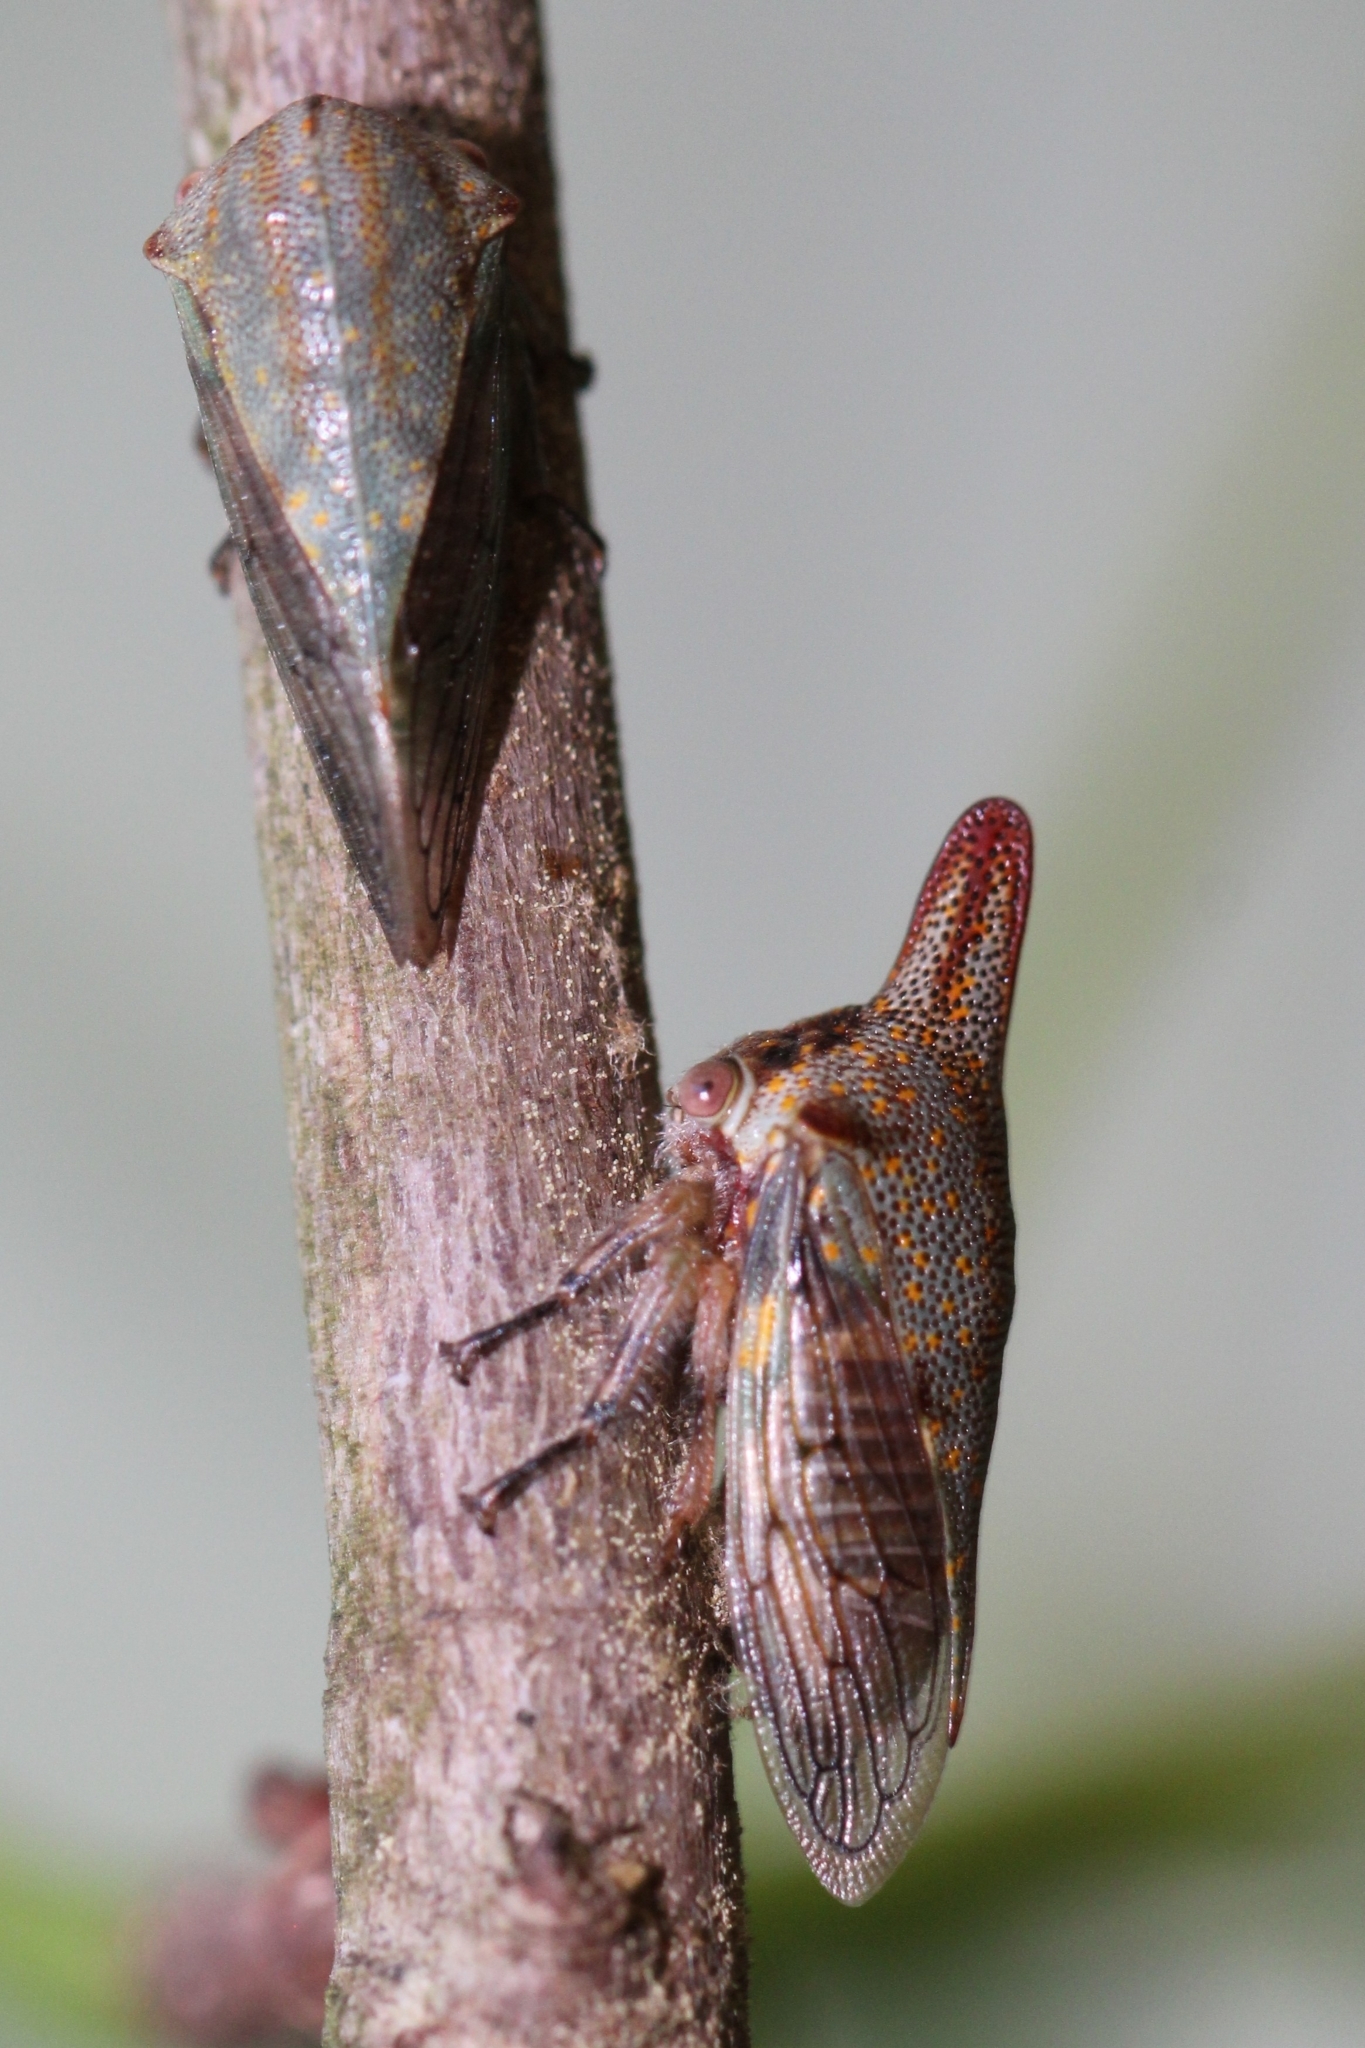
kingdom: Animalia
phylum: Arthropoda
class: Insecta
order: Hemiptera
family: Membracidae
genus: Platycotis
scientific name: Platycotis vittatus
